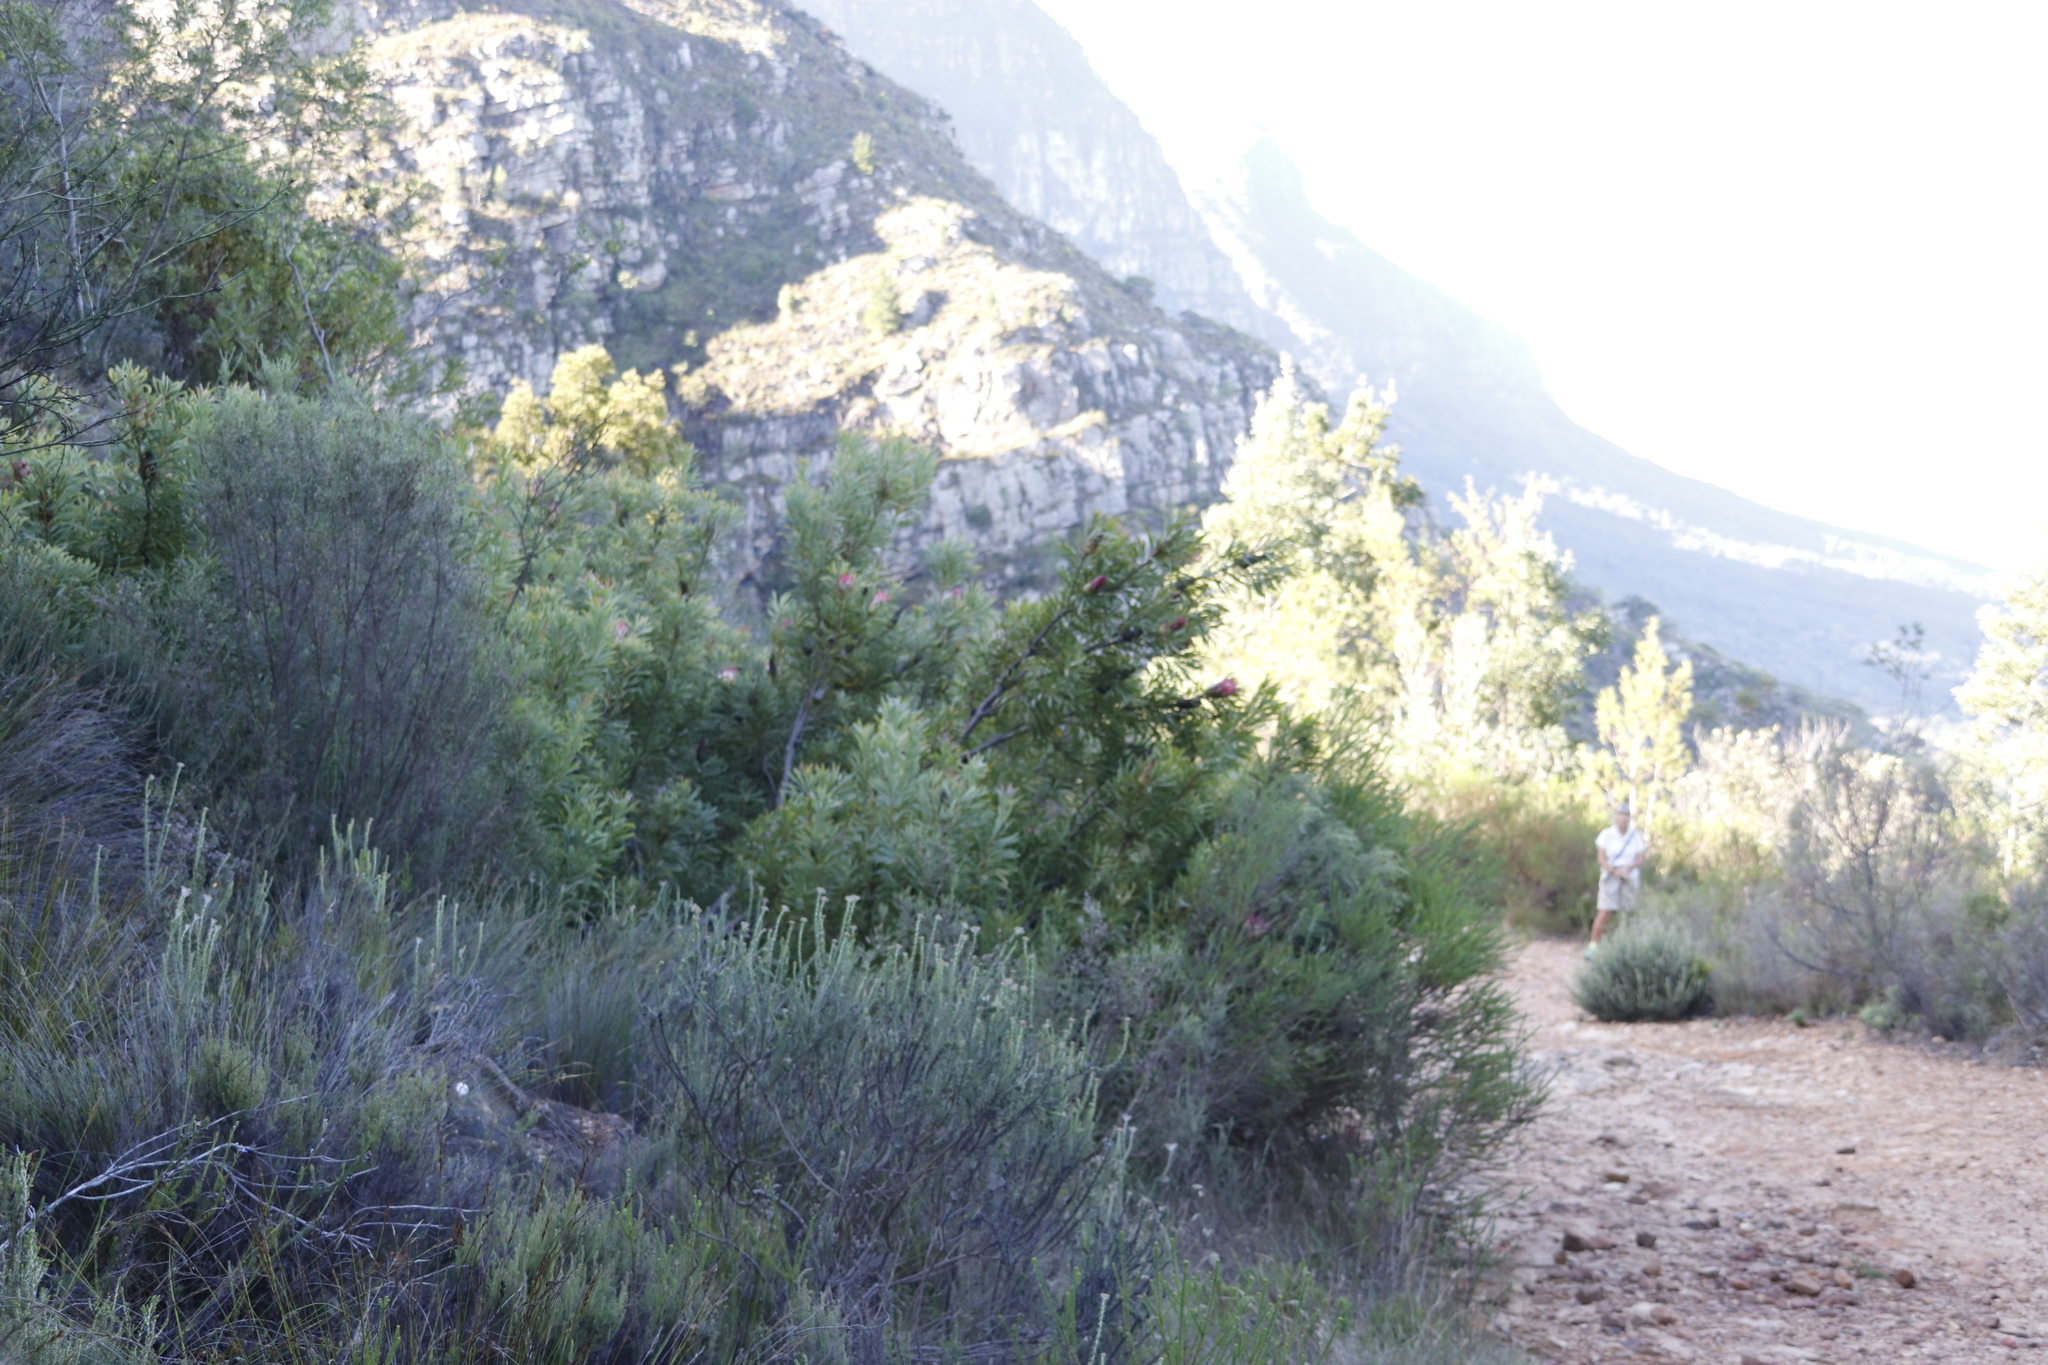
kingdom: Plantae
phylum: Tracheophyta
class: Magnoliopsida
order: Proteales
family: Proteaceae
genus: Protea
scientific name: Protea repens
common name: Sugarbush
